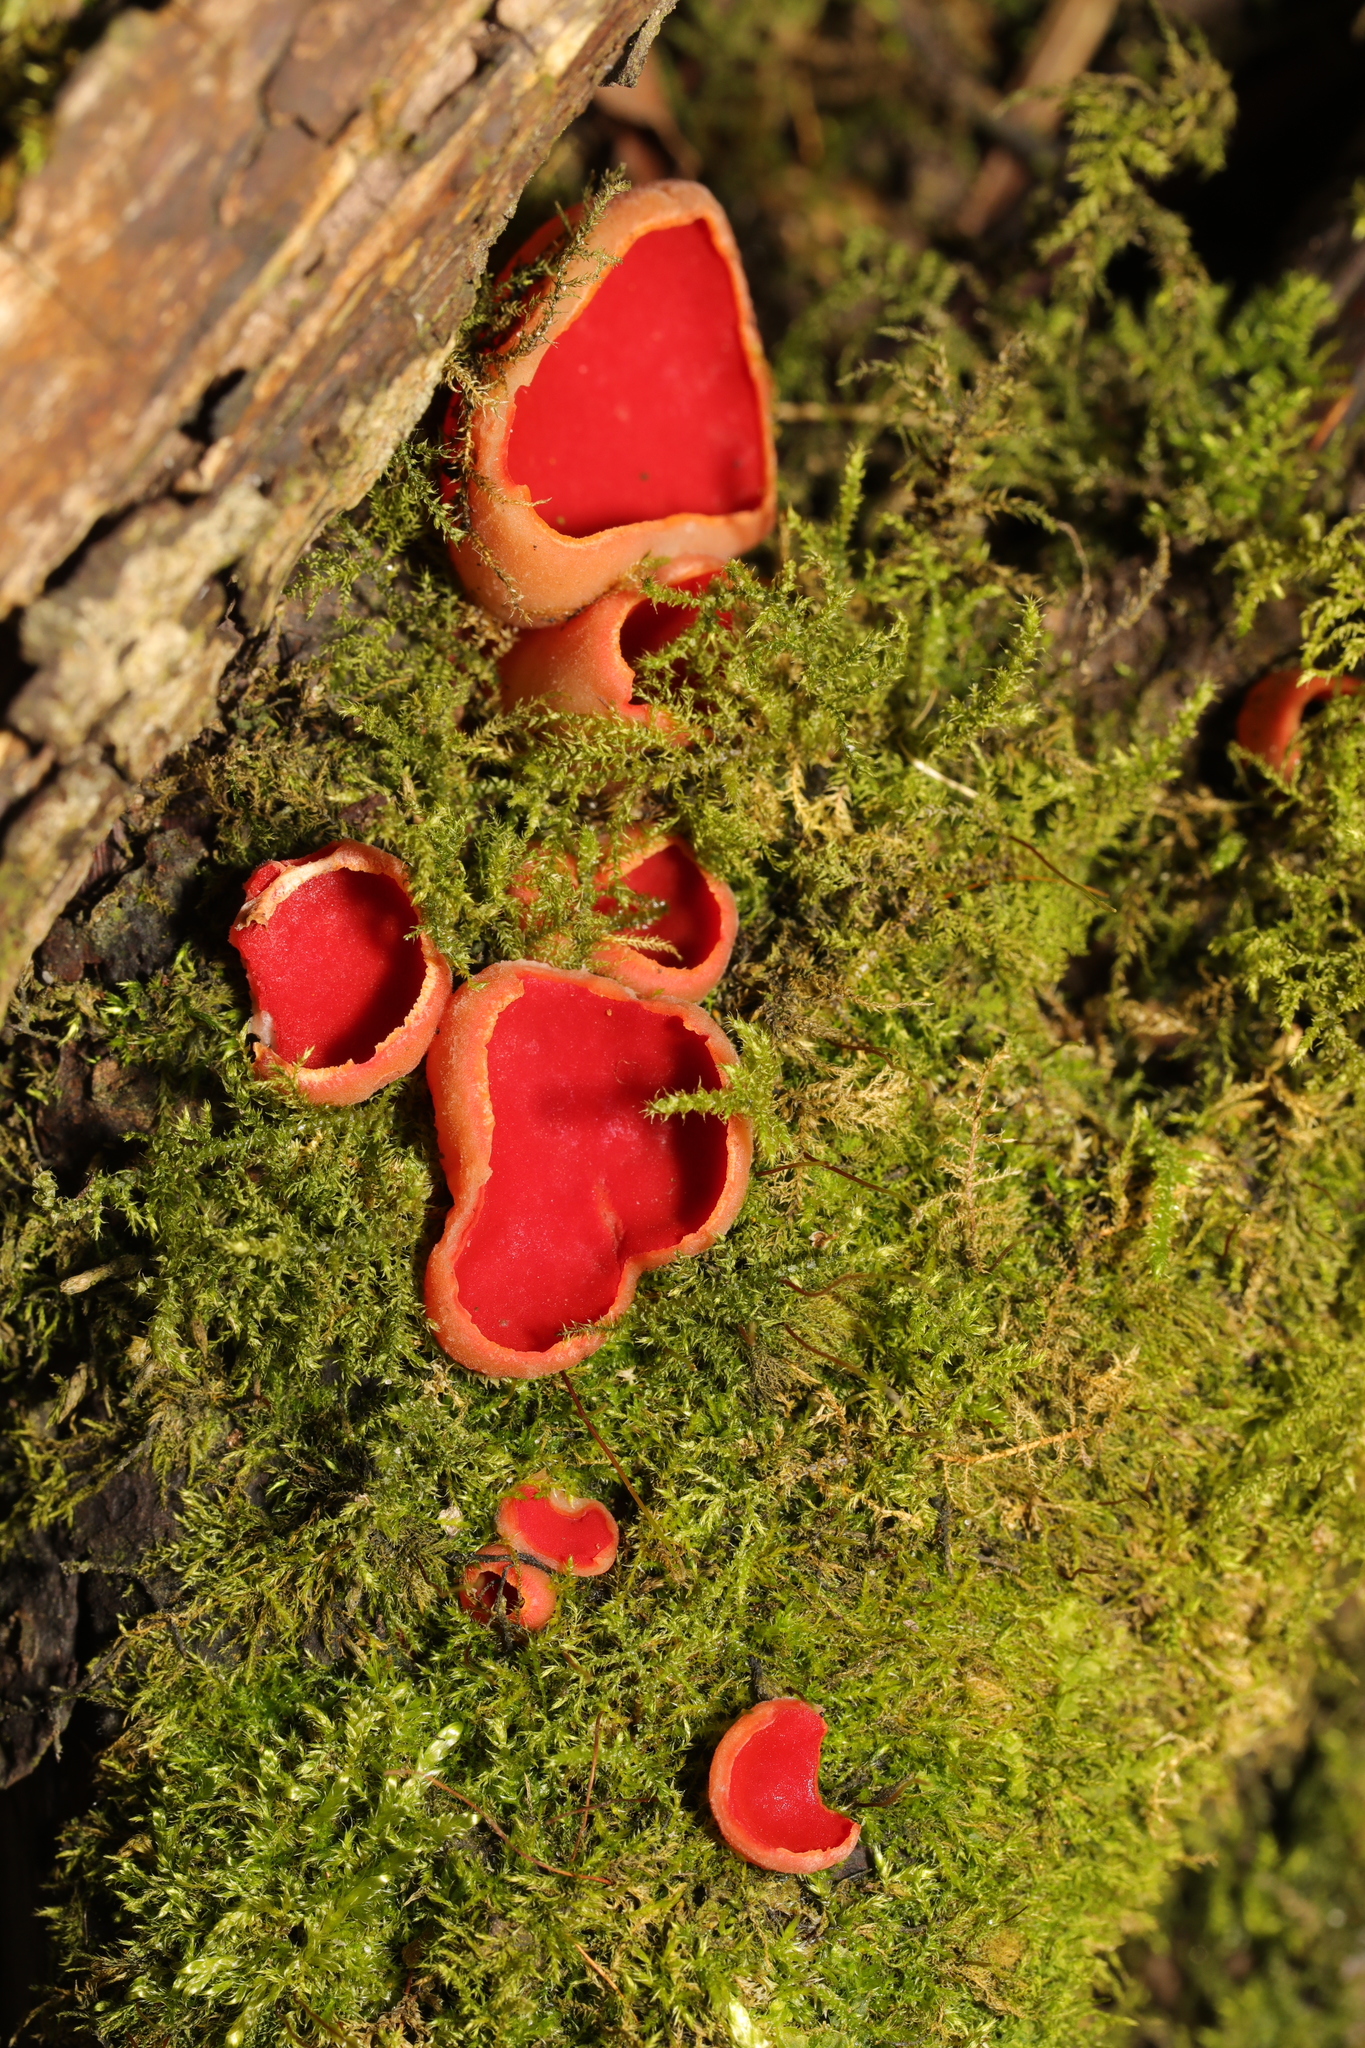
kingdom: Fungi
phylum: Ascomycota
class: Pezizomycetes
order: Pezizales
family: Sarcoscyphaceae
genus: Sarcoscypha
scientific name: Sarcoscypha
